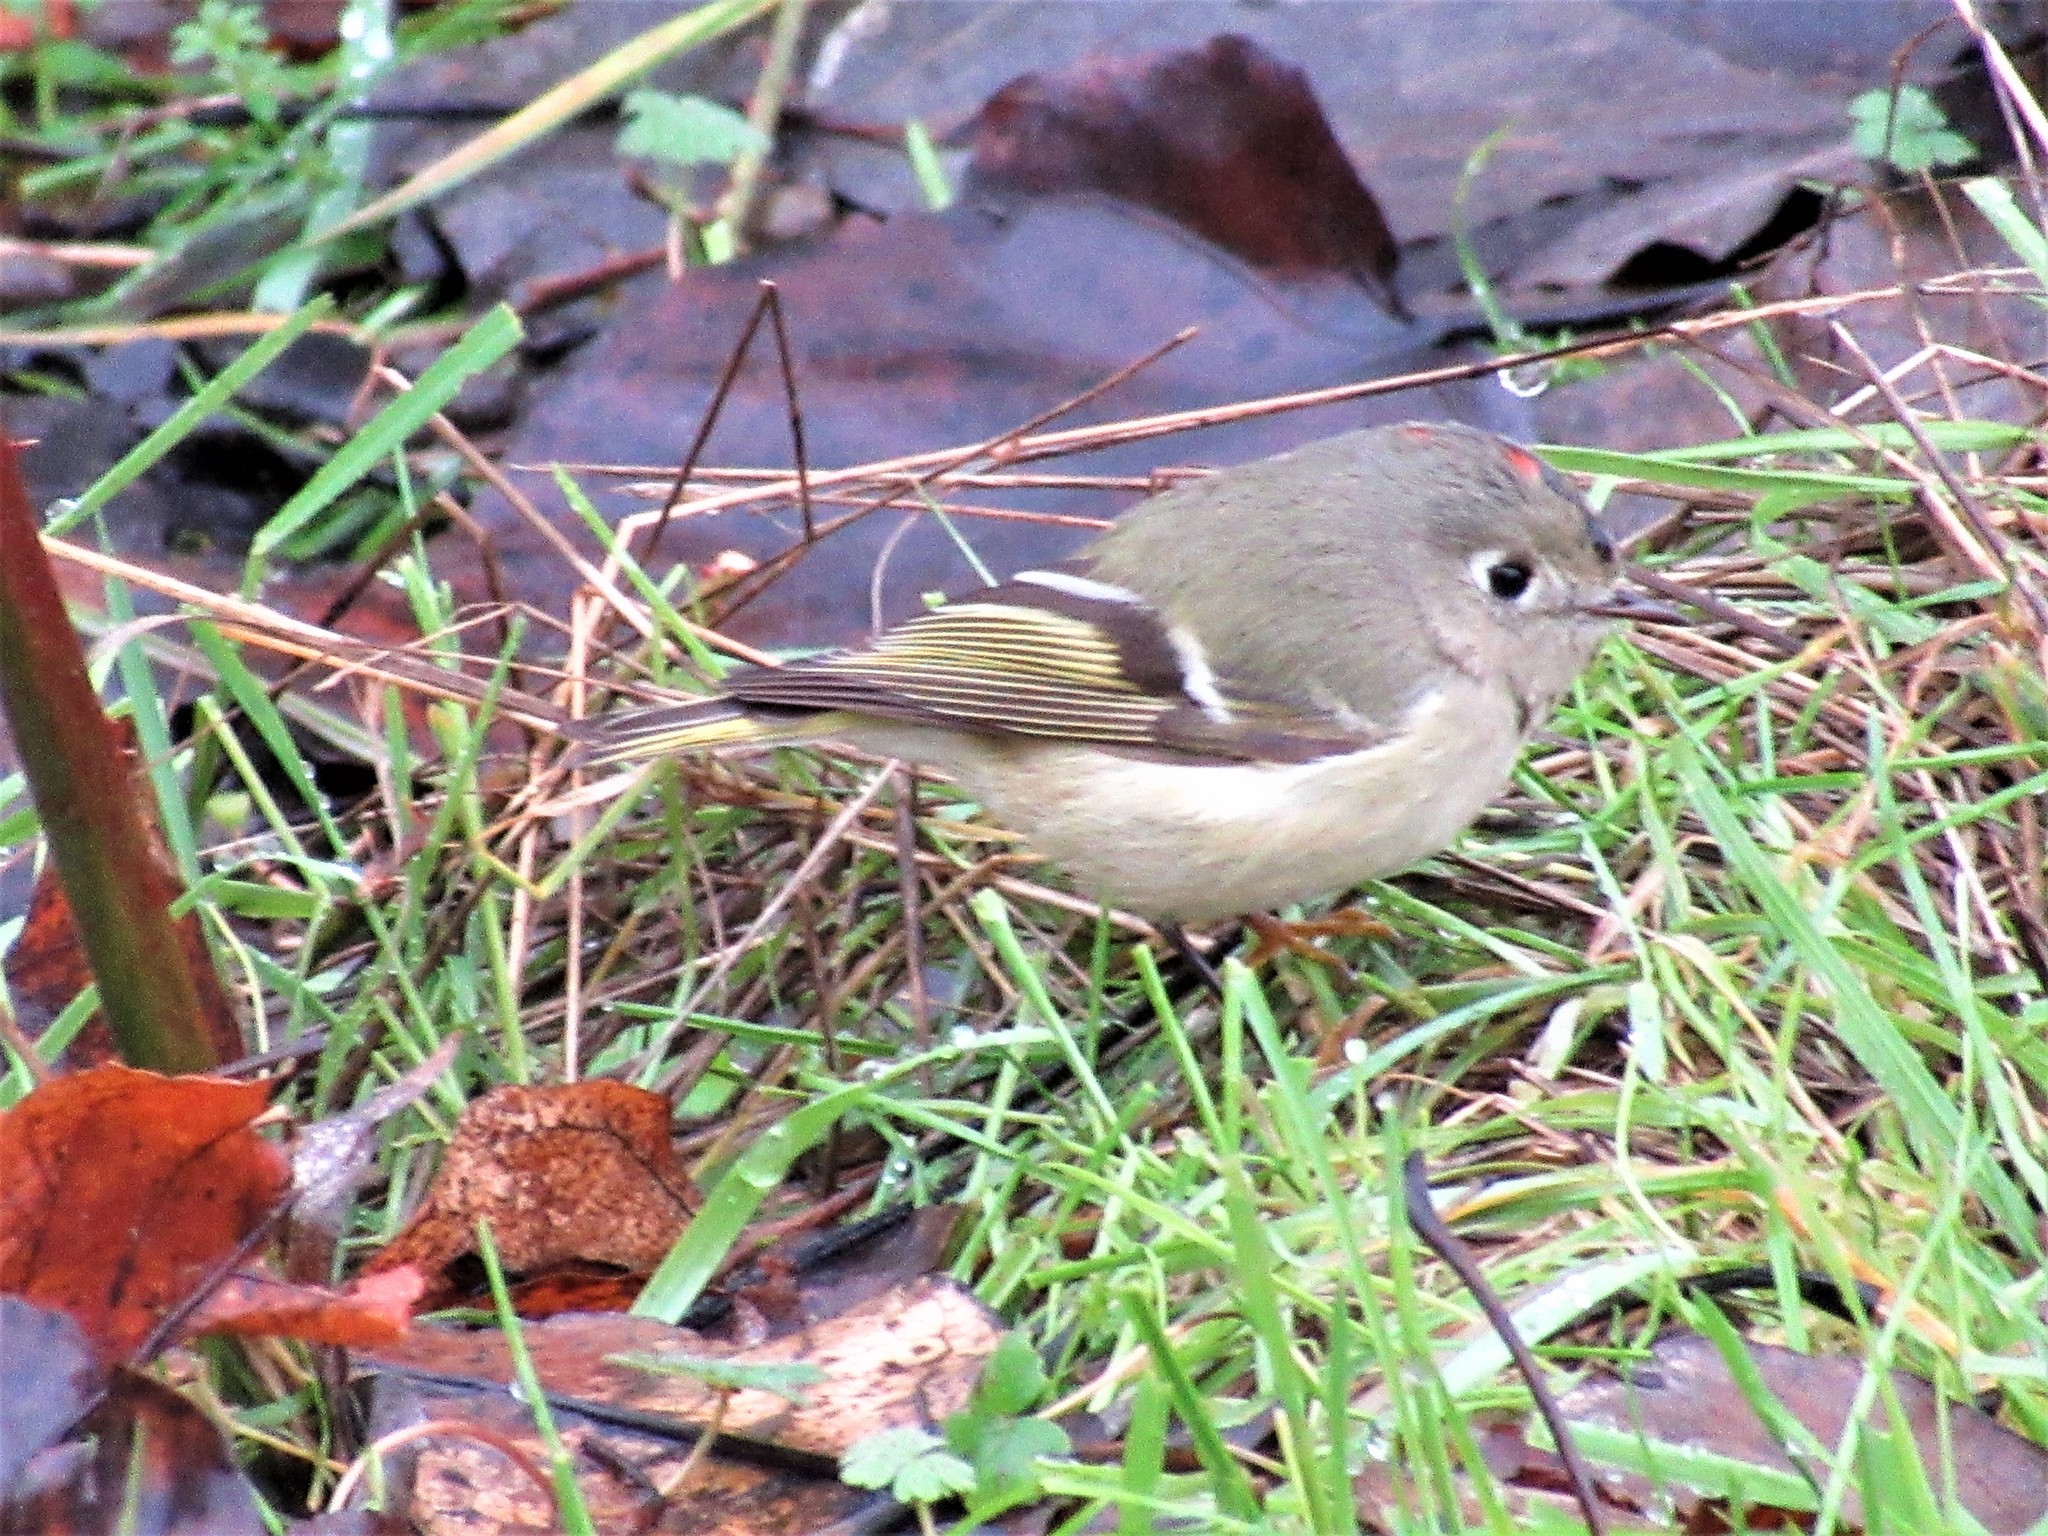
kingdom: Animalia
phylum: Chordata
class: Aves
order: Passeriformes
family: Regulidae
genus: Regulus
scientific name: Regulus calendula
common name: Ruby-crowned kinglet
